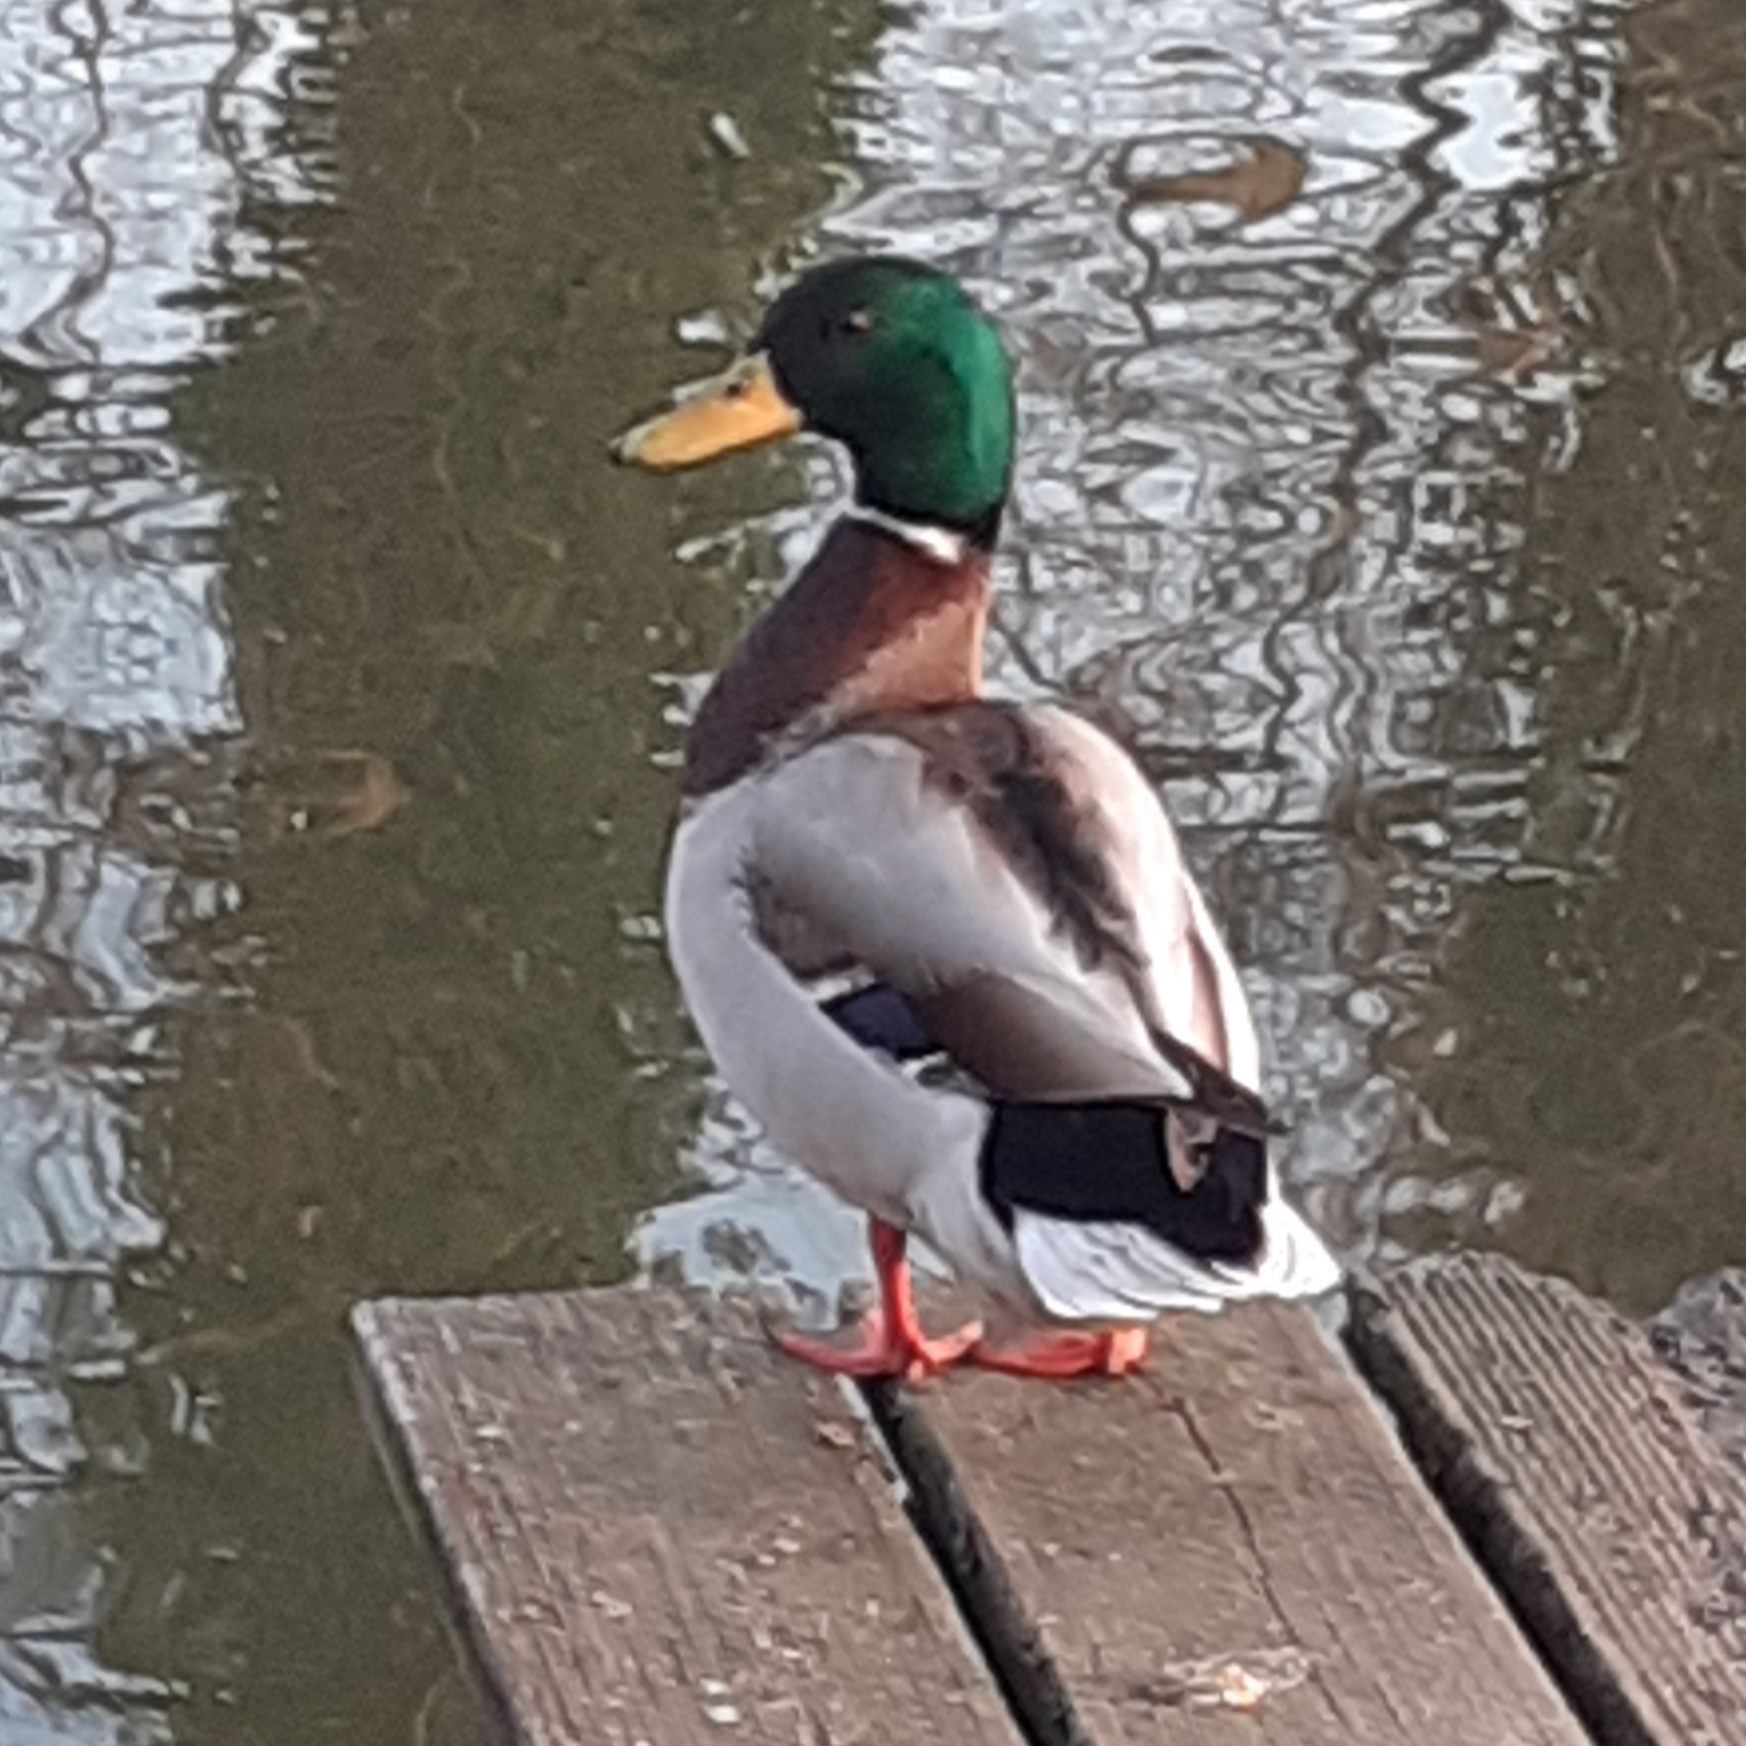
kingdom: Animalia
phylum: Chordata
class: Aves
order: Anseriformes
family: Anatidae
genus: Anas
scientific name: Anas platyrhynchos
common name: Mallard
